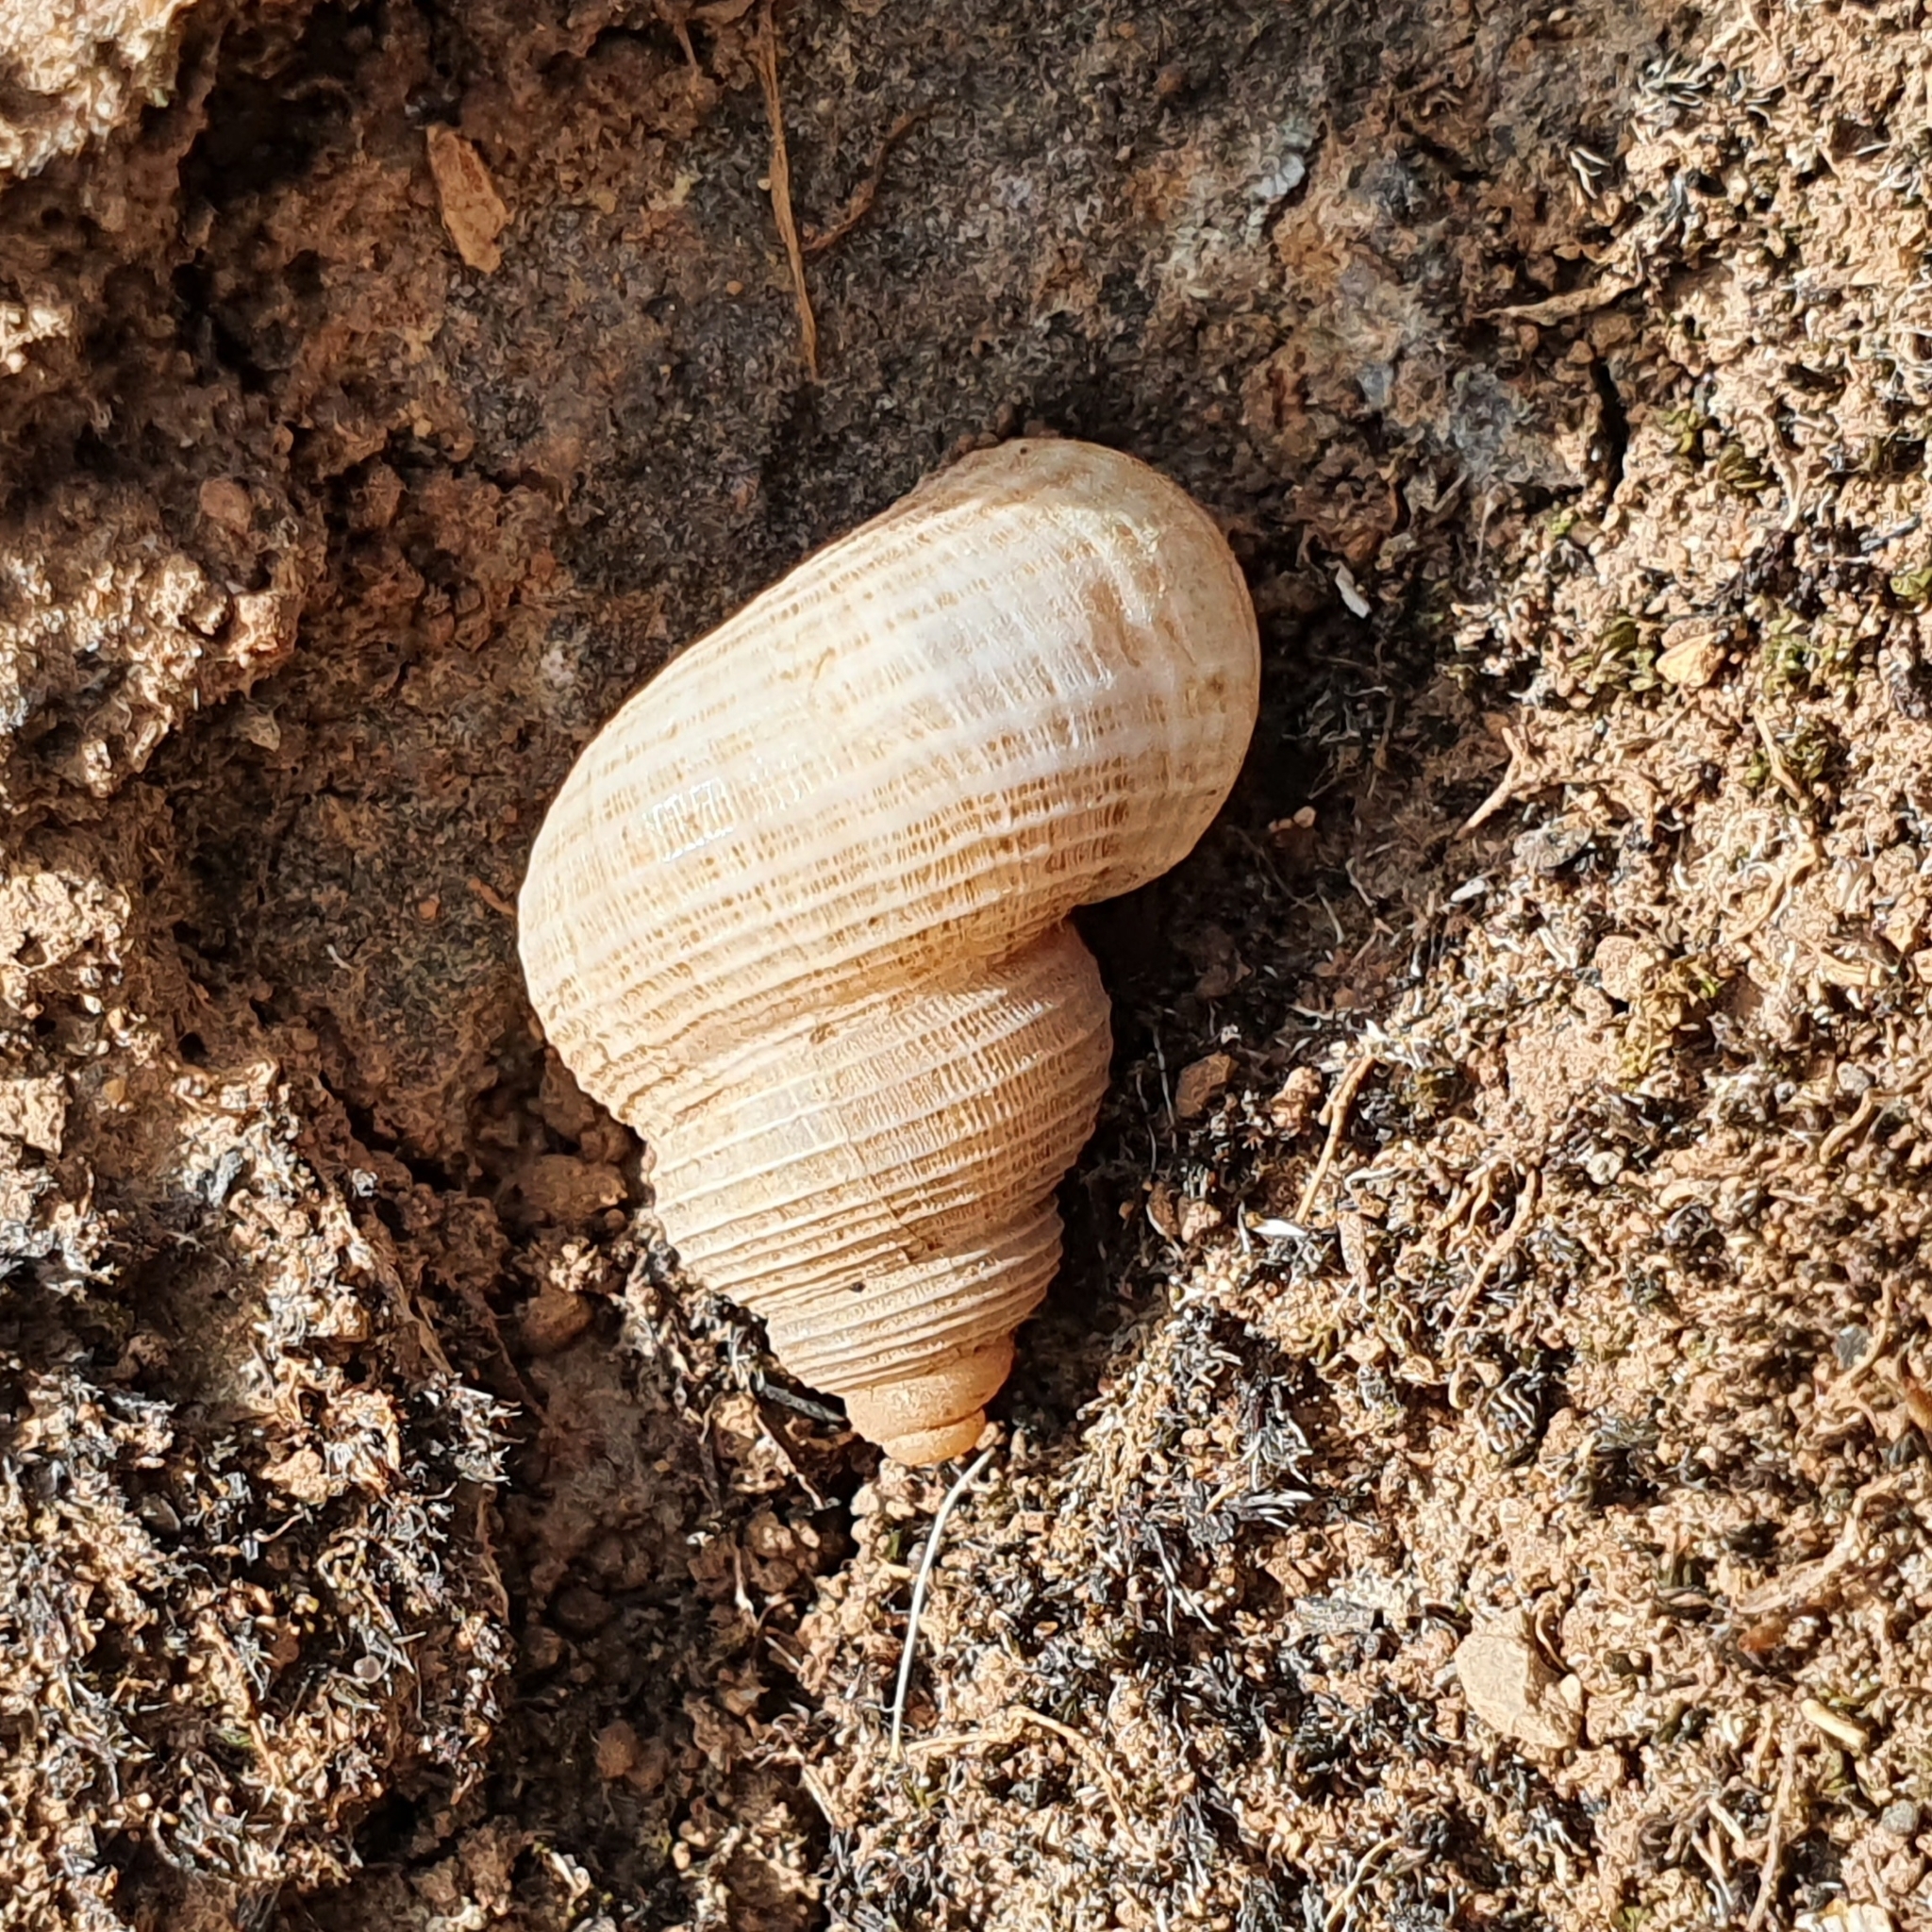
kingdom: Animalia
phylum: Mollusca
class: Gastropoda
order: Littorinimorpha
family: Pomatiidae
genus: Tudorella
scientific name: Tudorella sulcata
